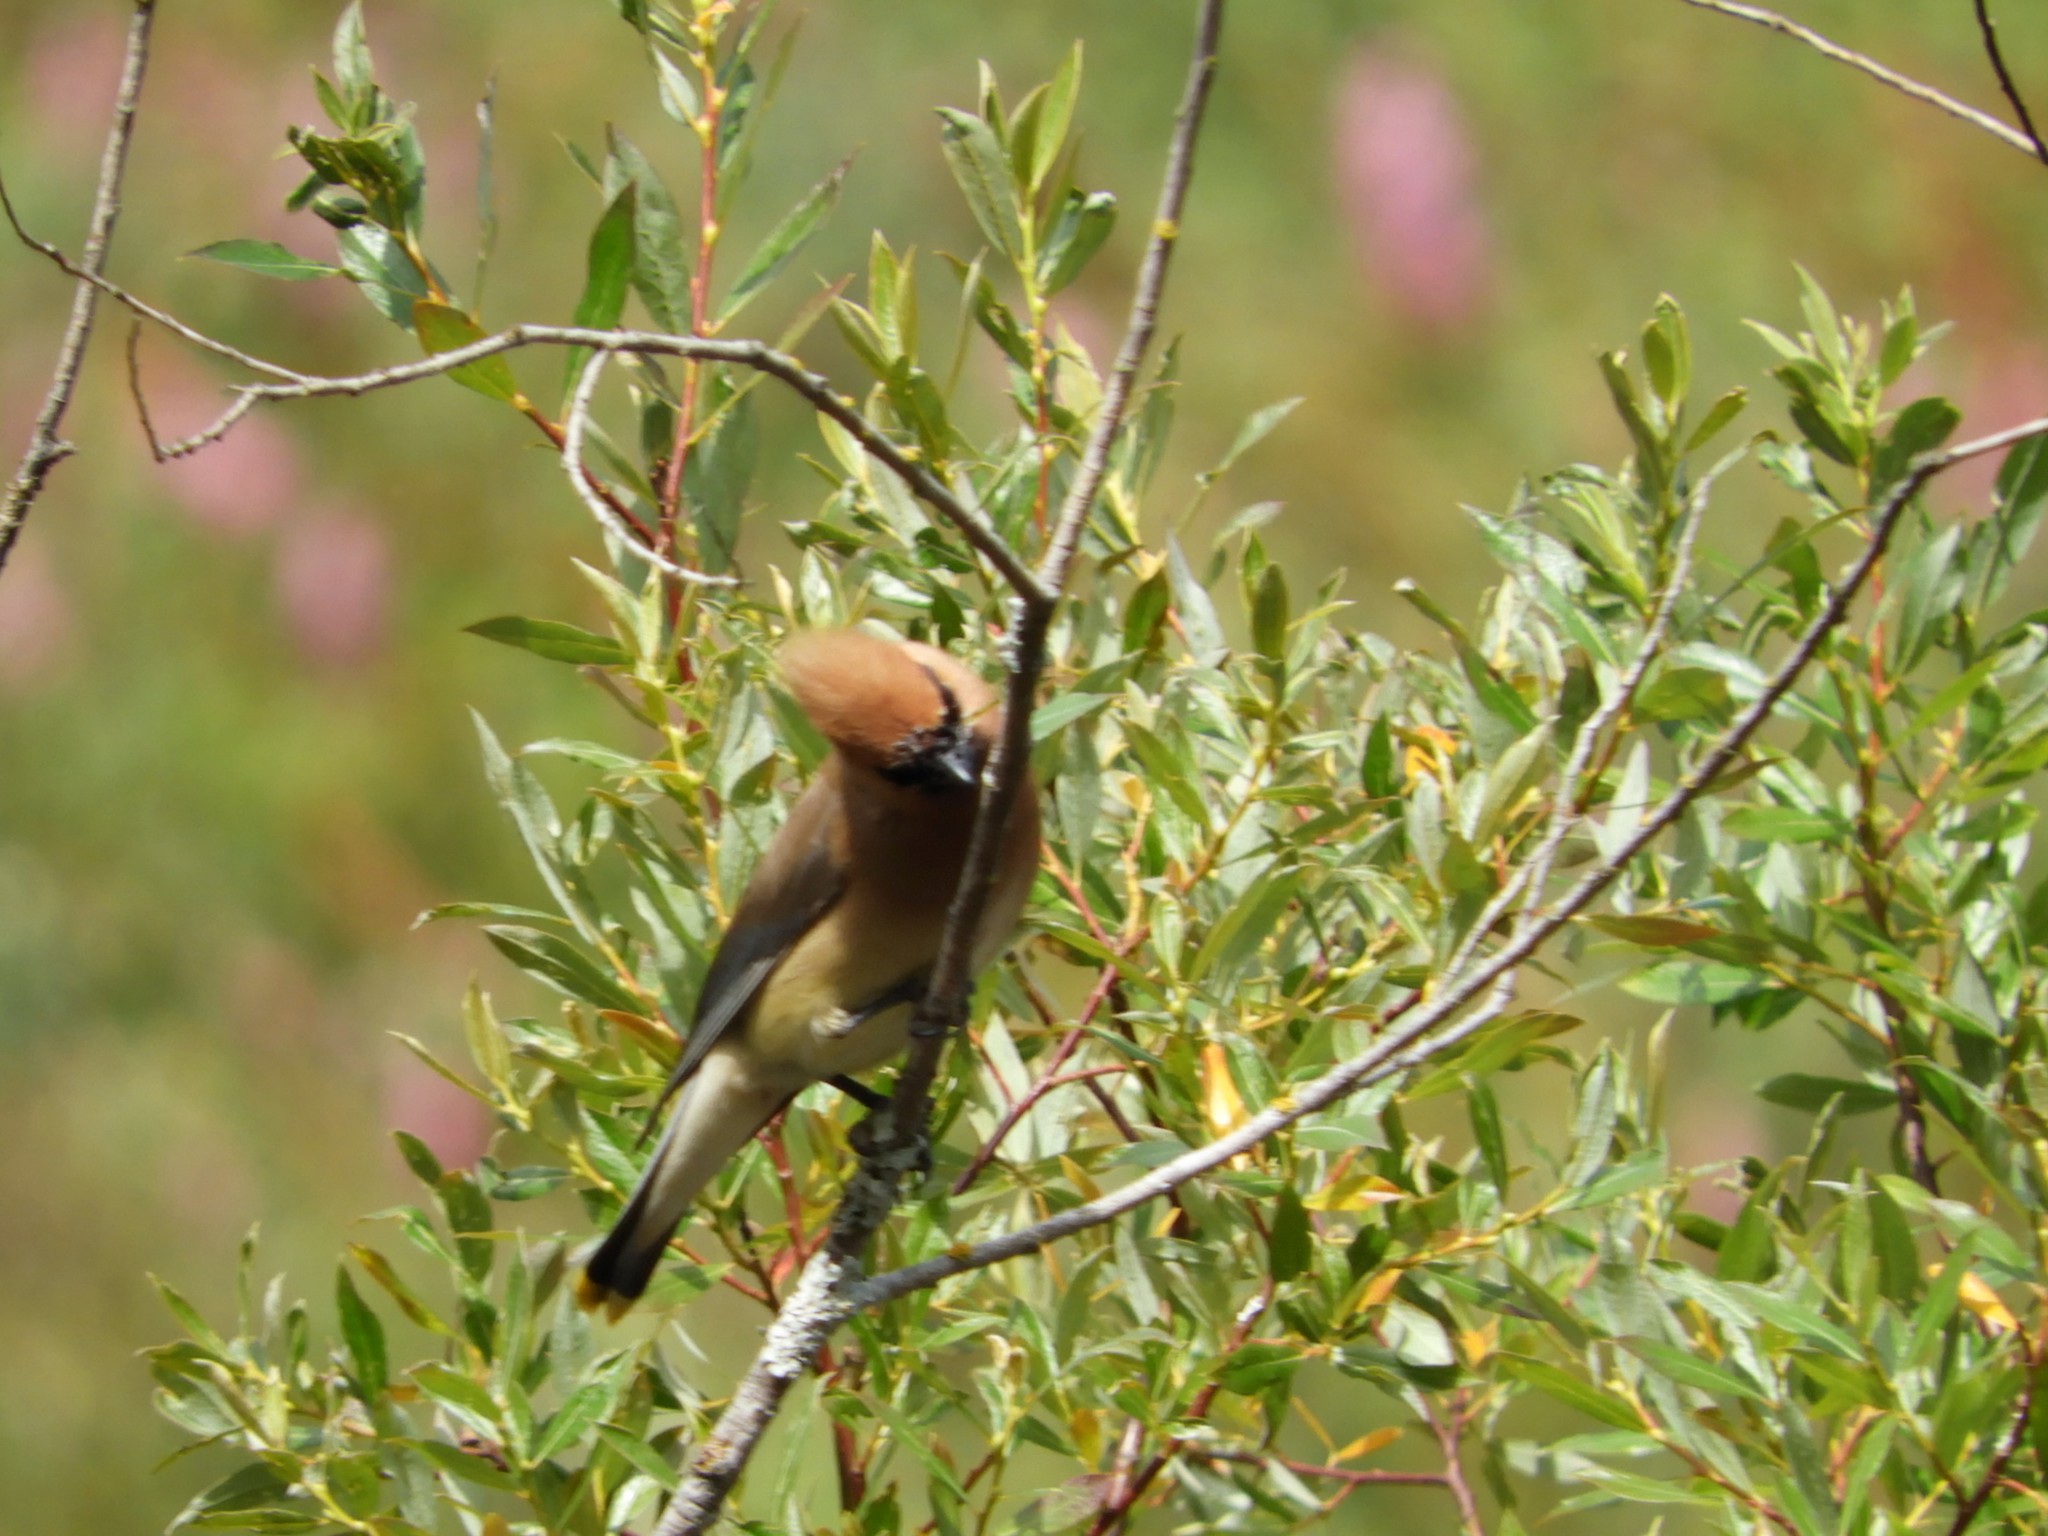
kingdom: Animalia
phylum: Chordata
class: Aves
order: Passeriformes
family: Bombycillidae
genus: Bombycilla
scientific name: Bombycilla cedrorum
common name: Cedar waxwing
